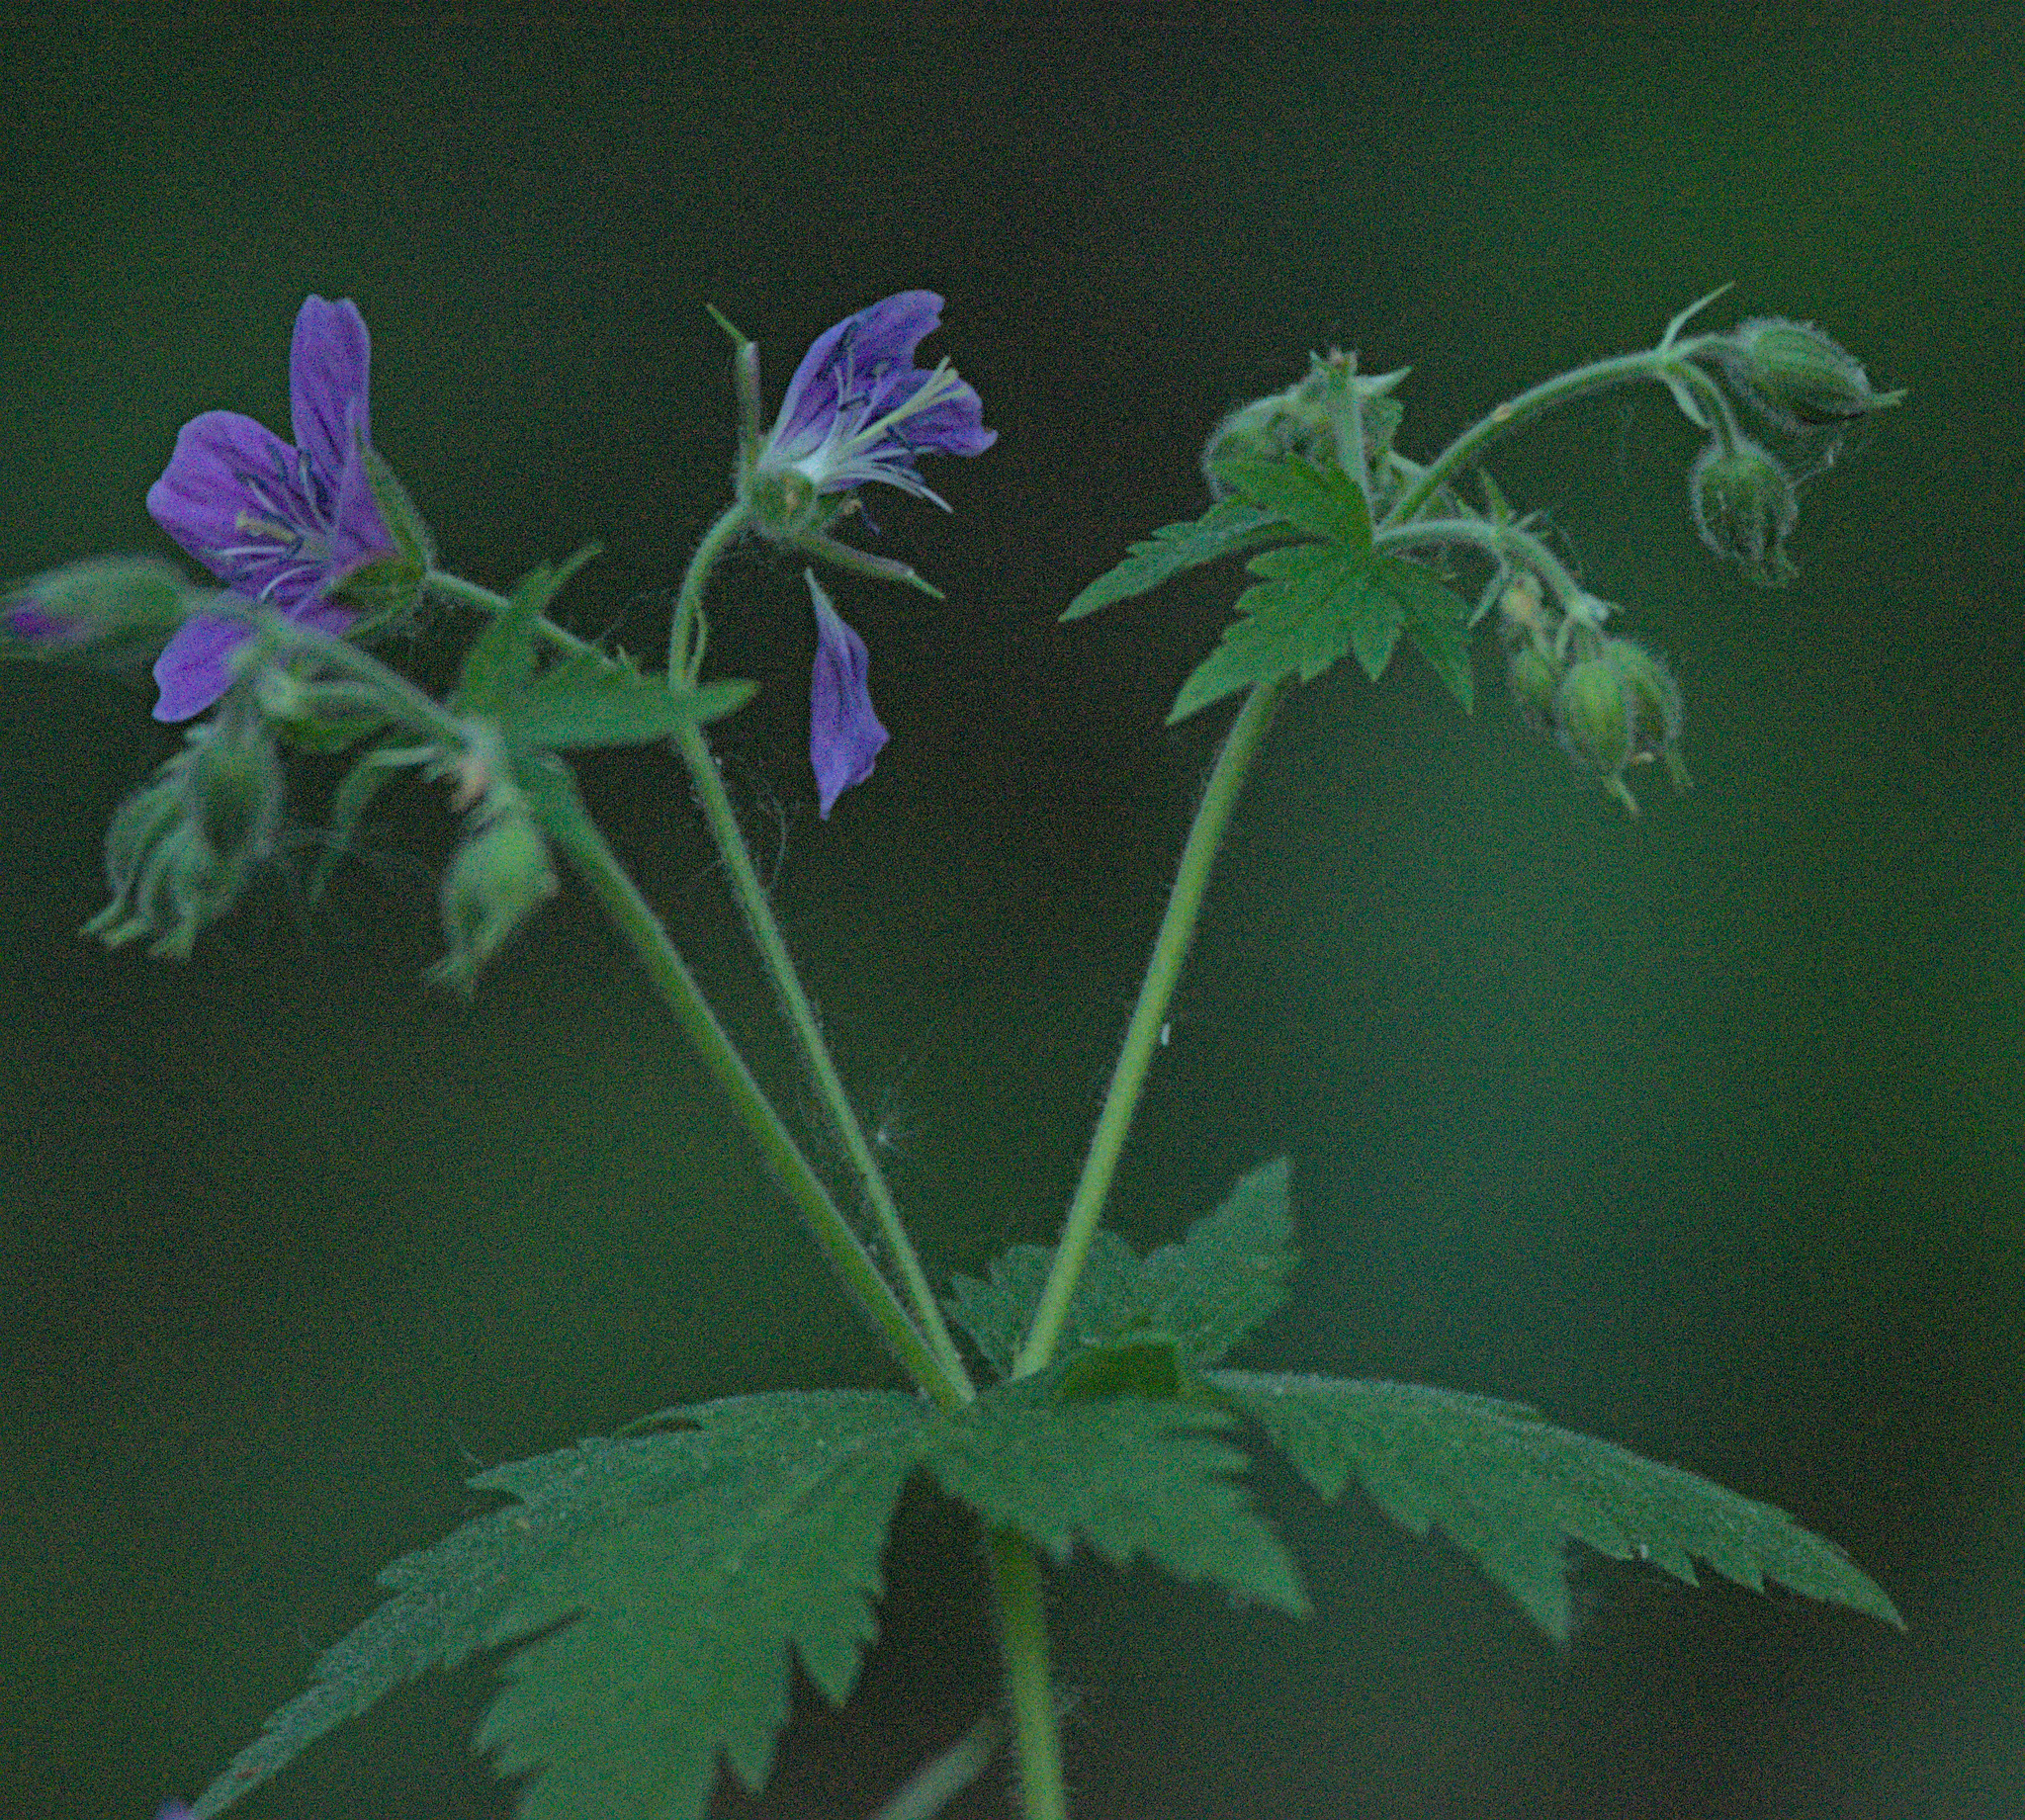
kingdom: Plantae
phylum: Tracheophyta
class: Magnoliopsida
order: Geraniales
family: Geraniaceae
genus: Geranium
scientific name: Geranium sylvaticum
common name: Wood crane's-bill
